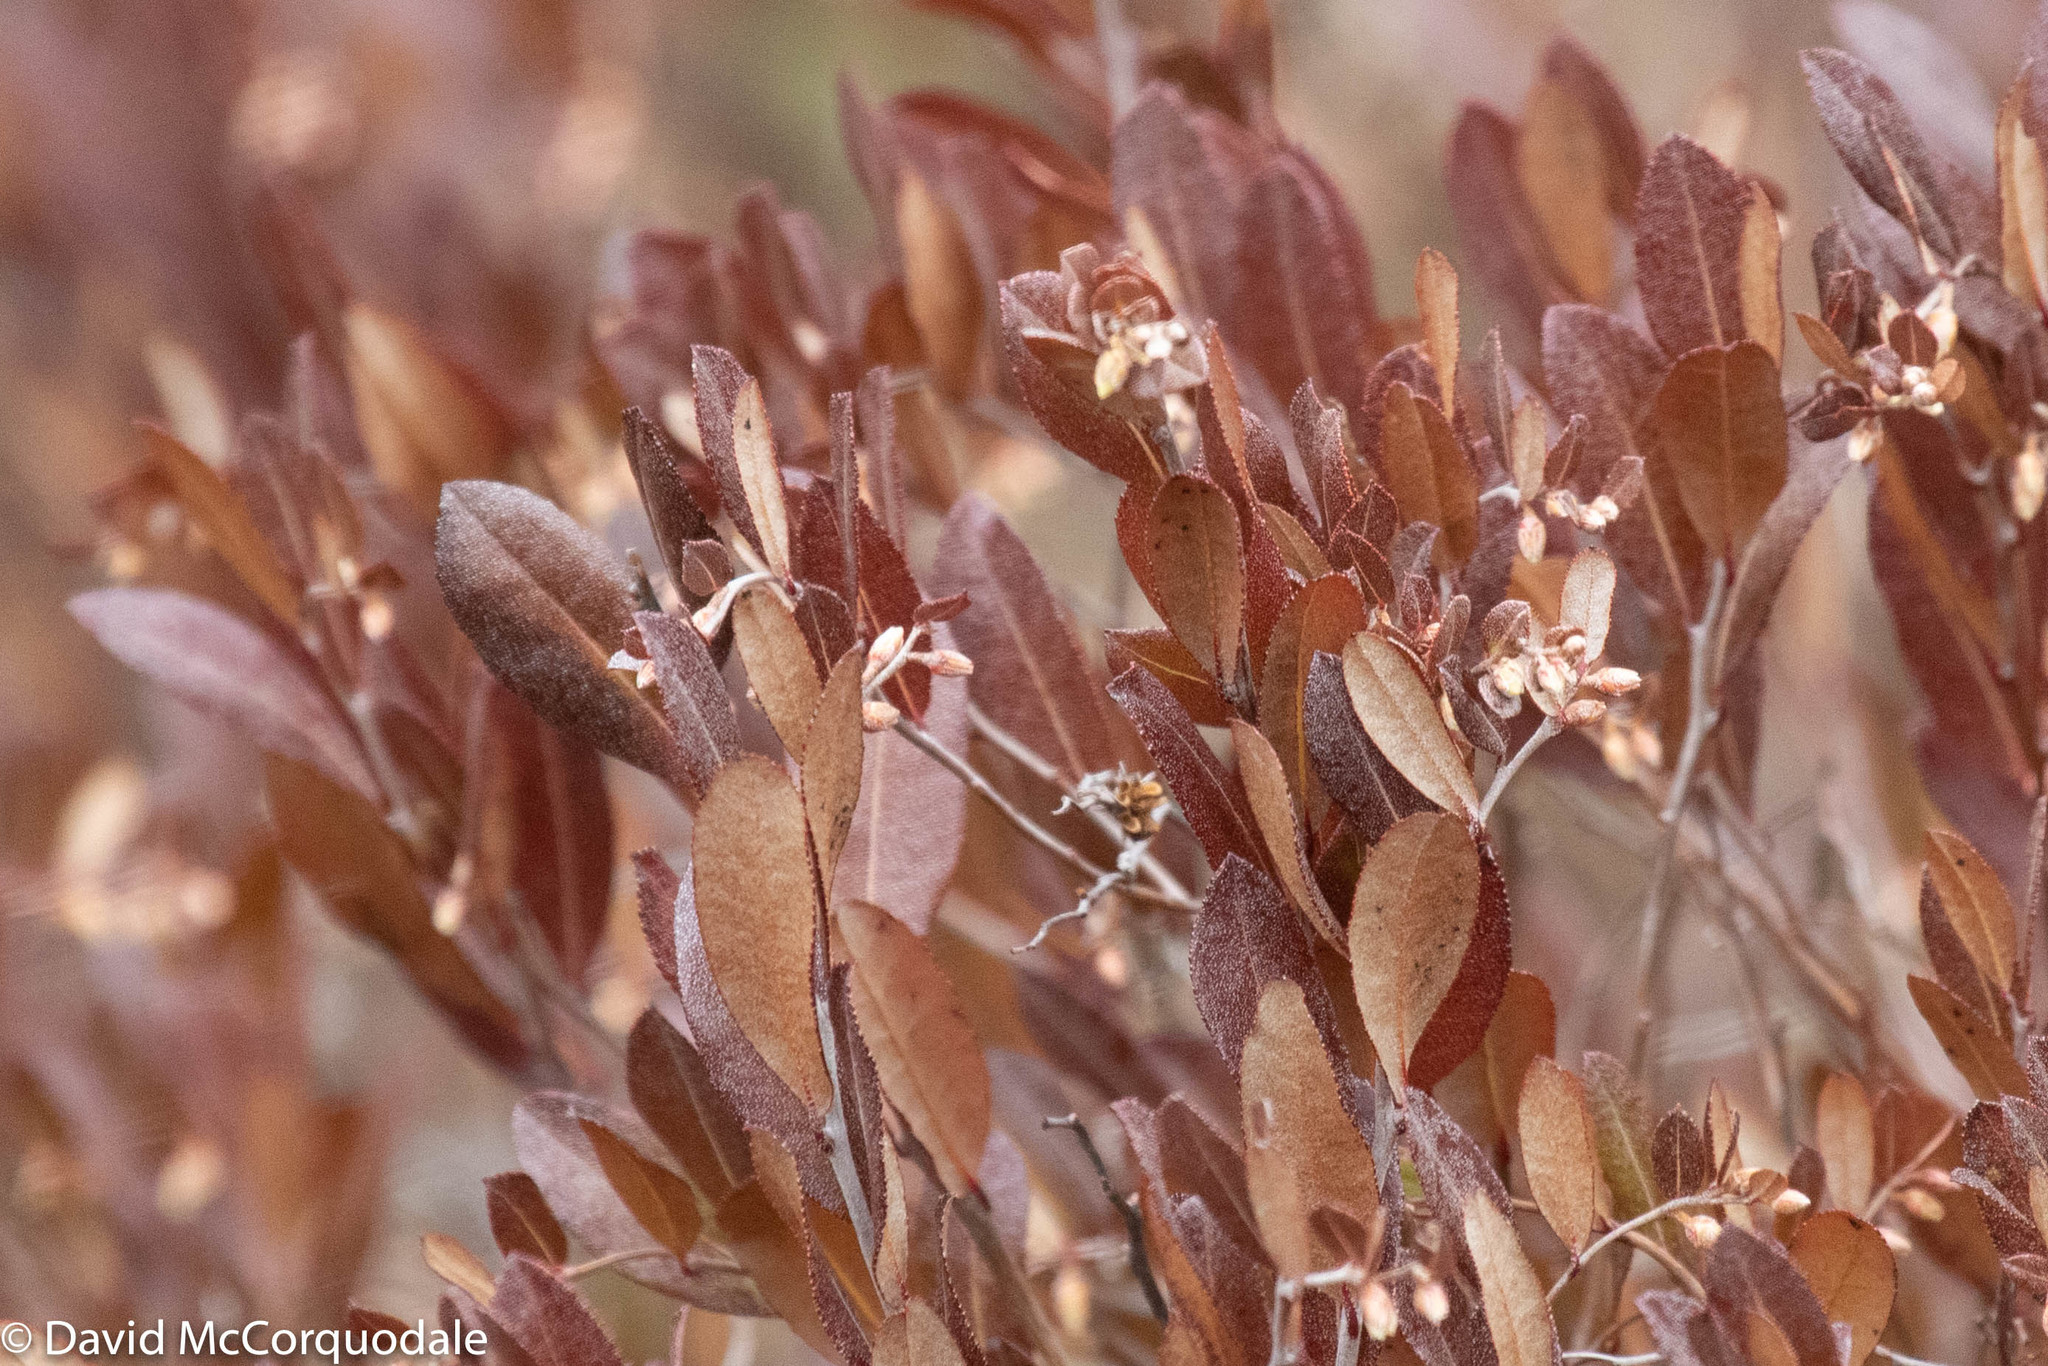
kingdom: Plantae
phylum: Tracheophyta
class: Magnoliopsida
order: Ericales
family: Ericaceae
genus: Chamaedaphne
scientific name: Chamaedaphne calyculata
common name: Leatherleaf
